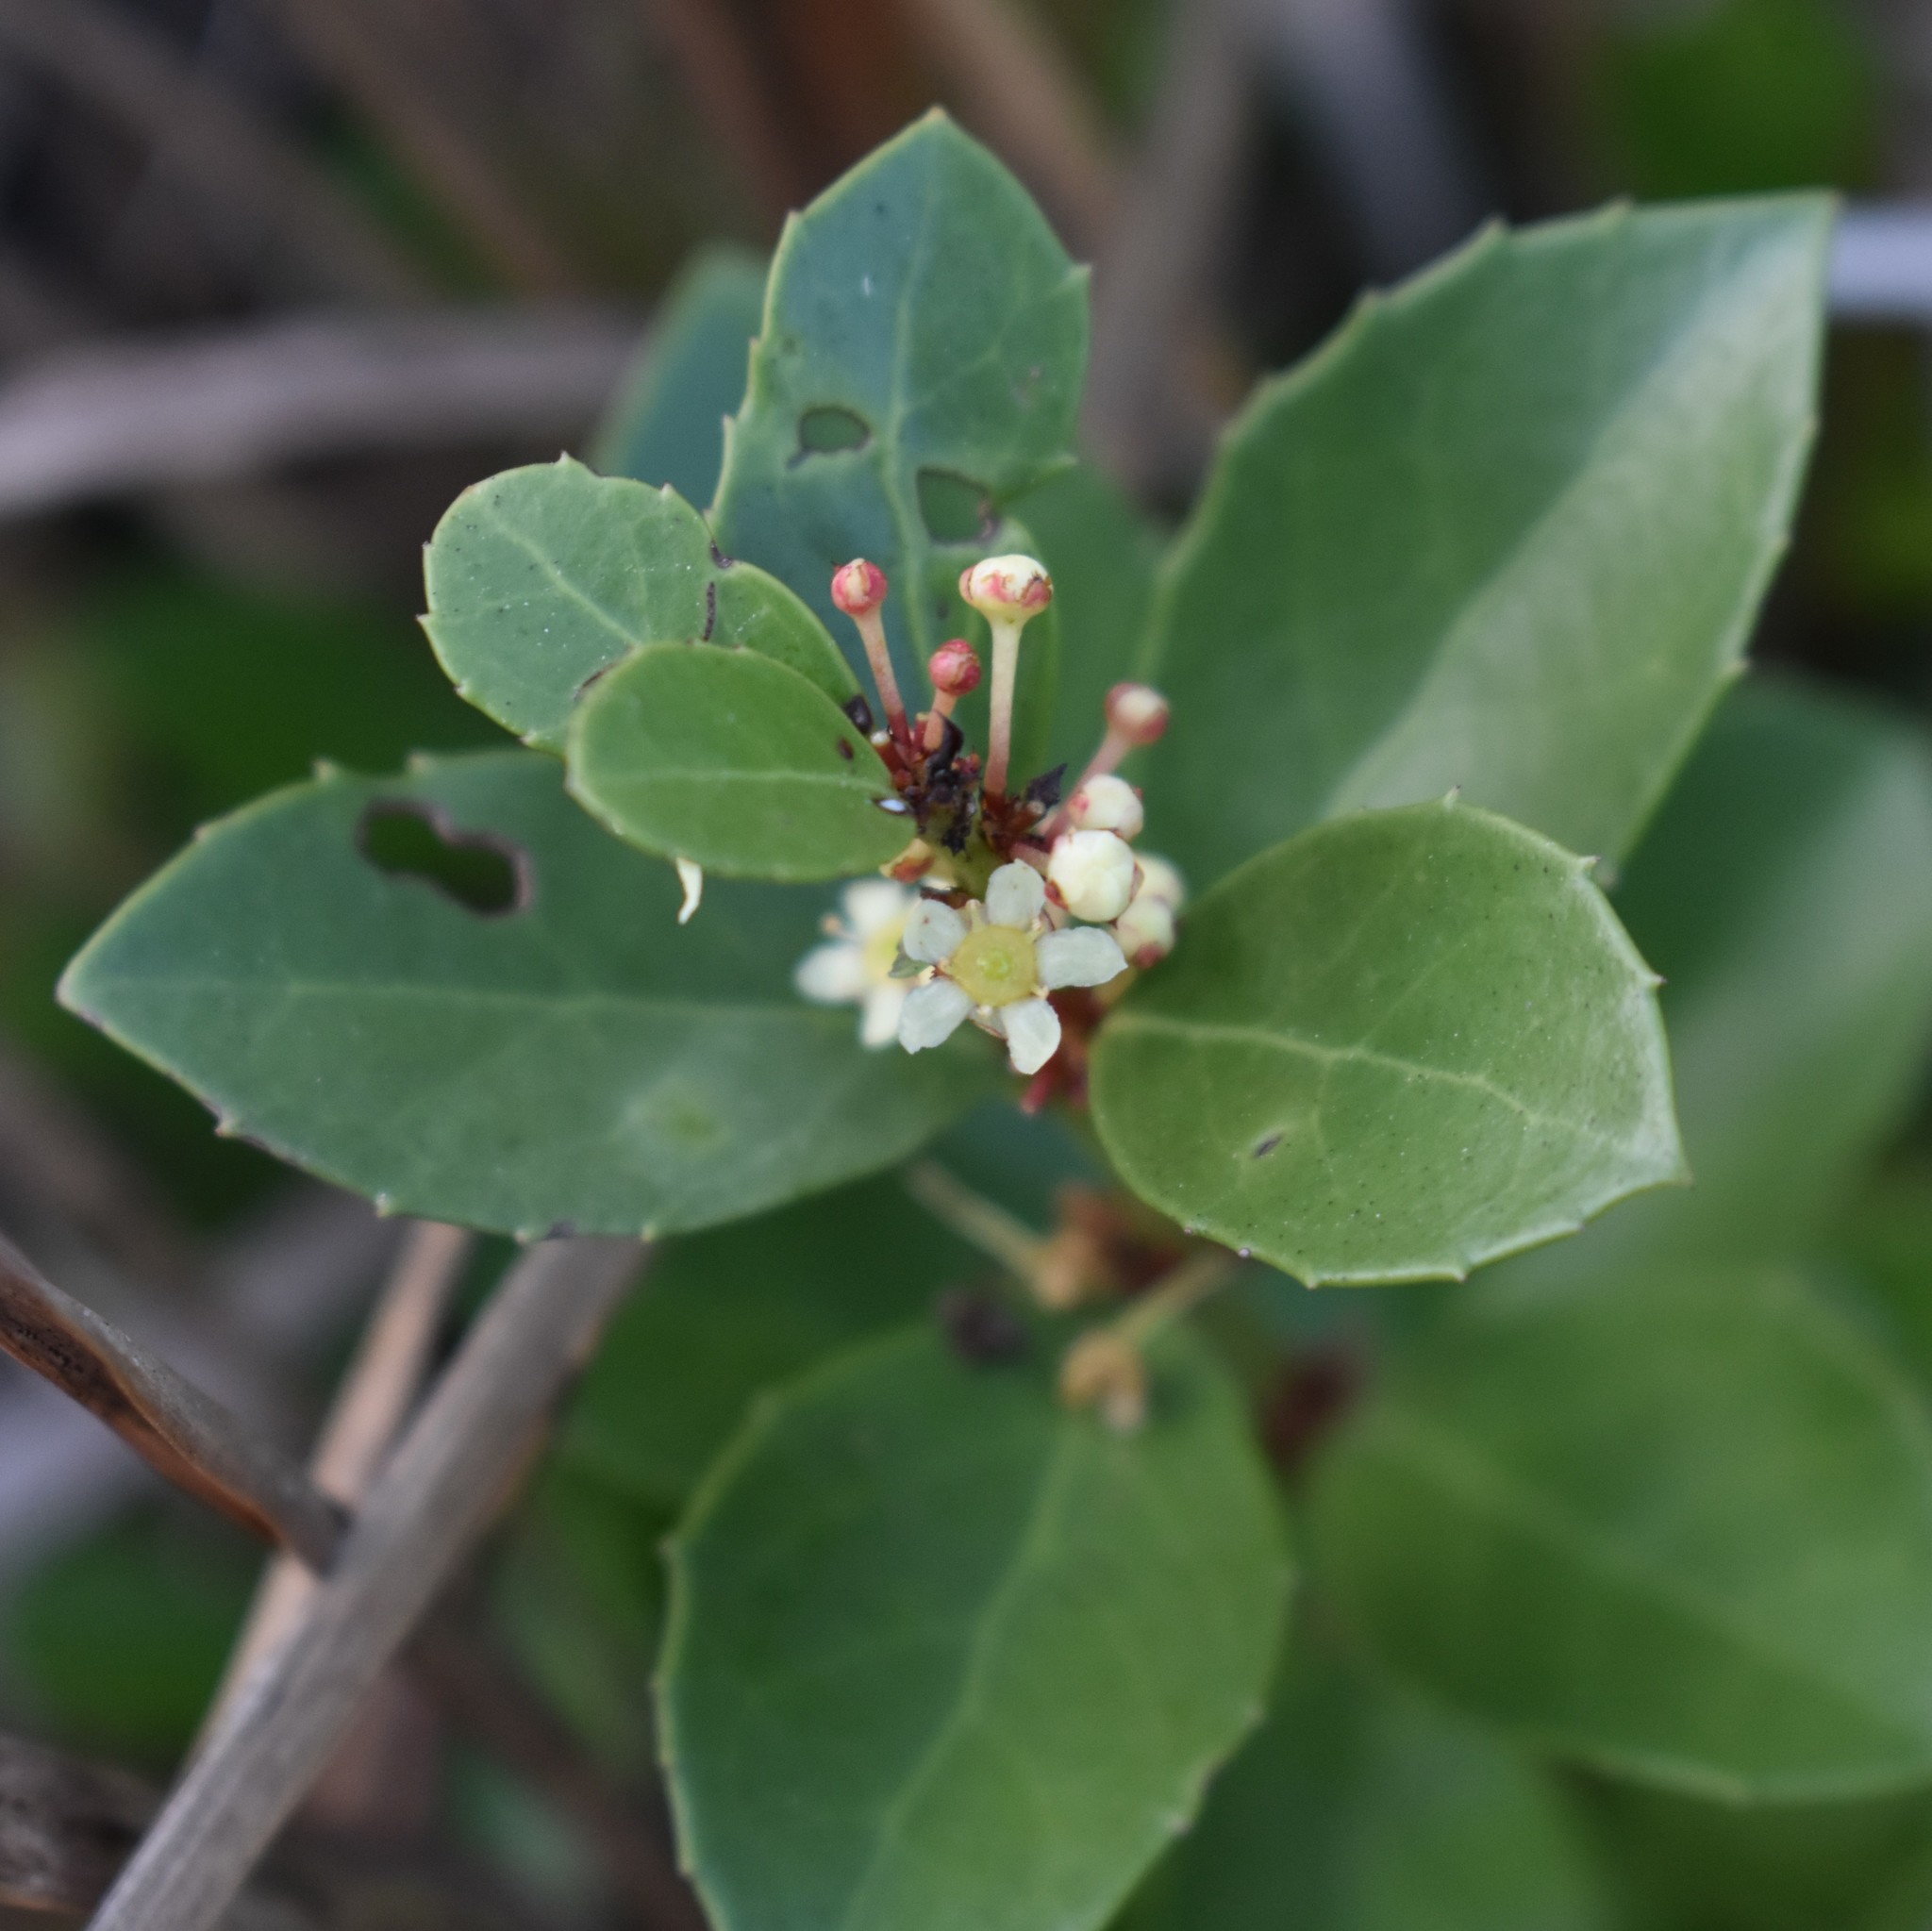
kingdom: Plantae
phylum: Tracheophyta
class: Magnoliopsida
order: Celastrales
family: Celastraceae
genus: Gymnosporia
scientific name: Gymnosporia procumbens
